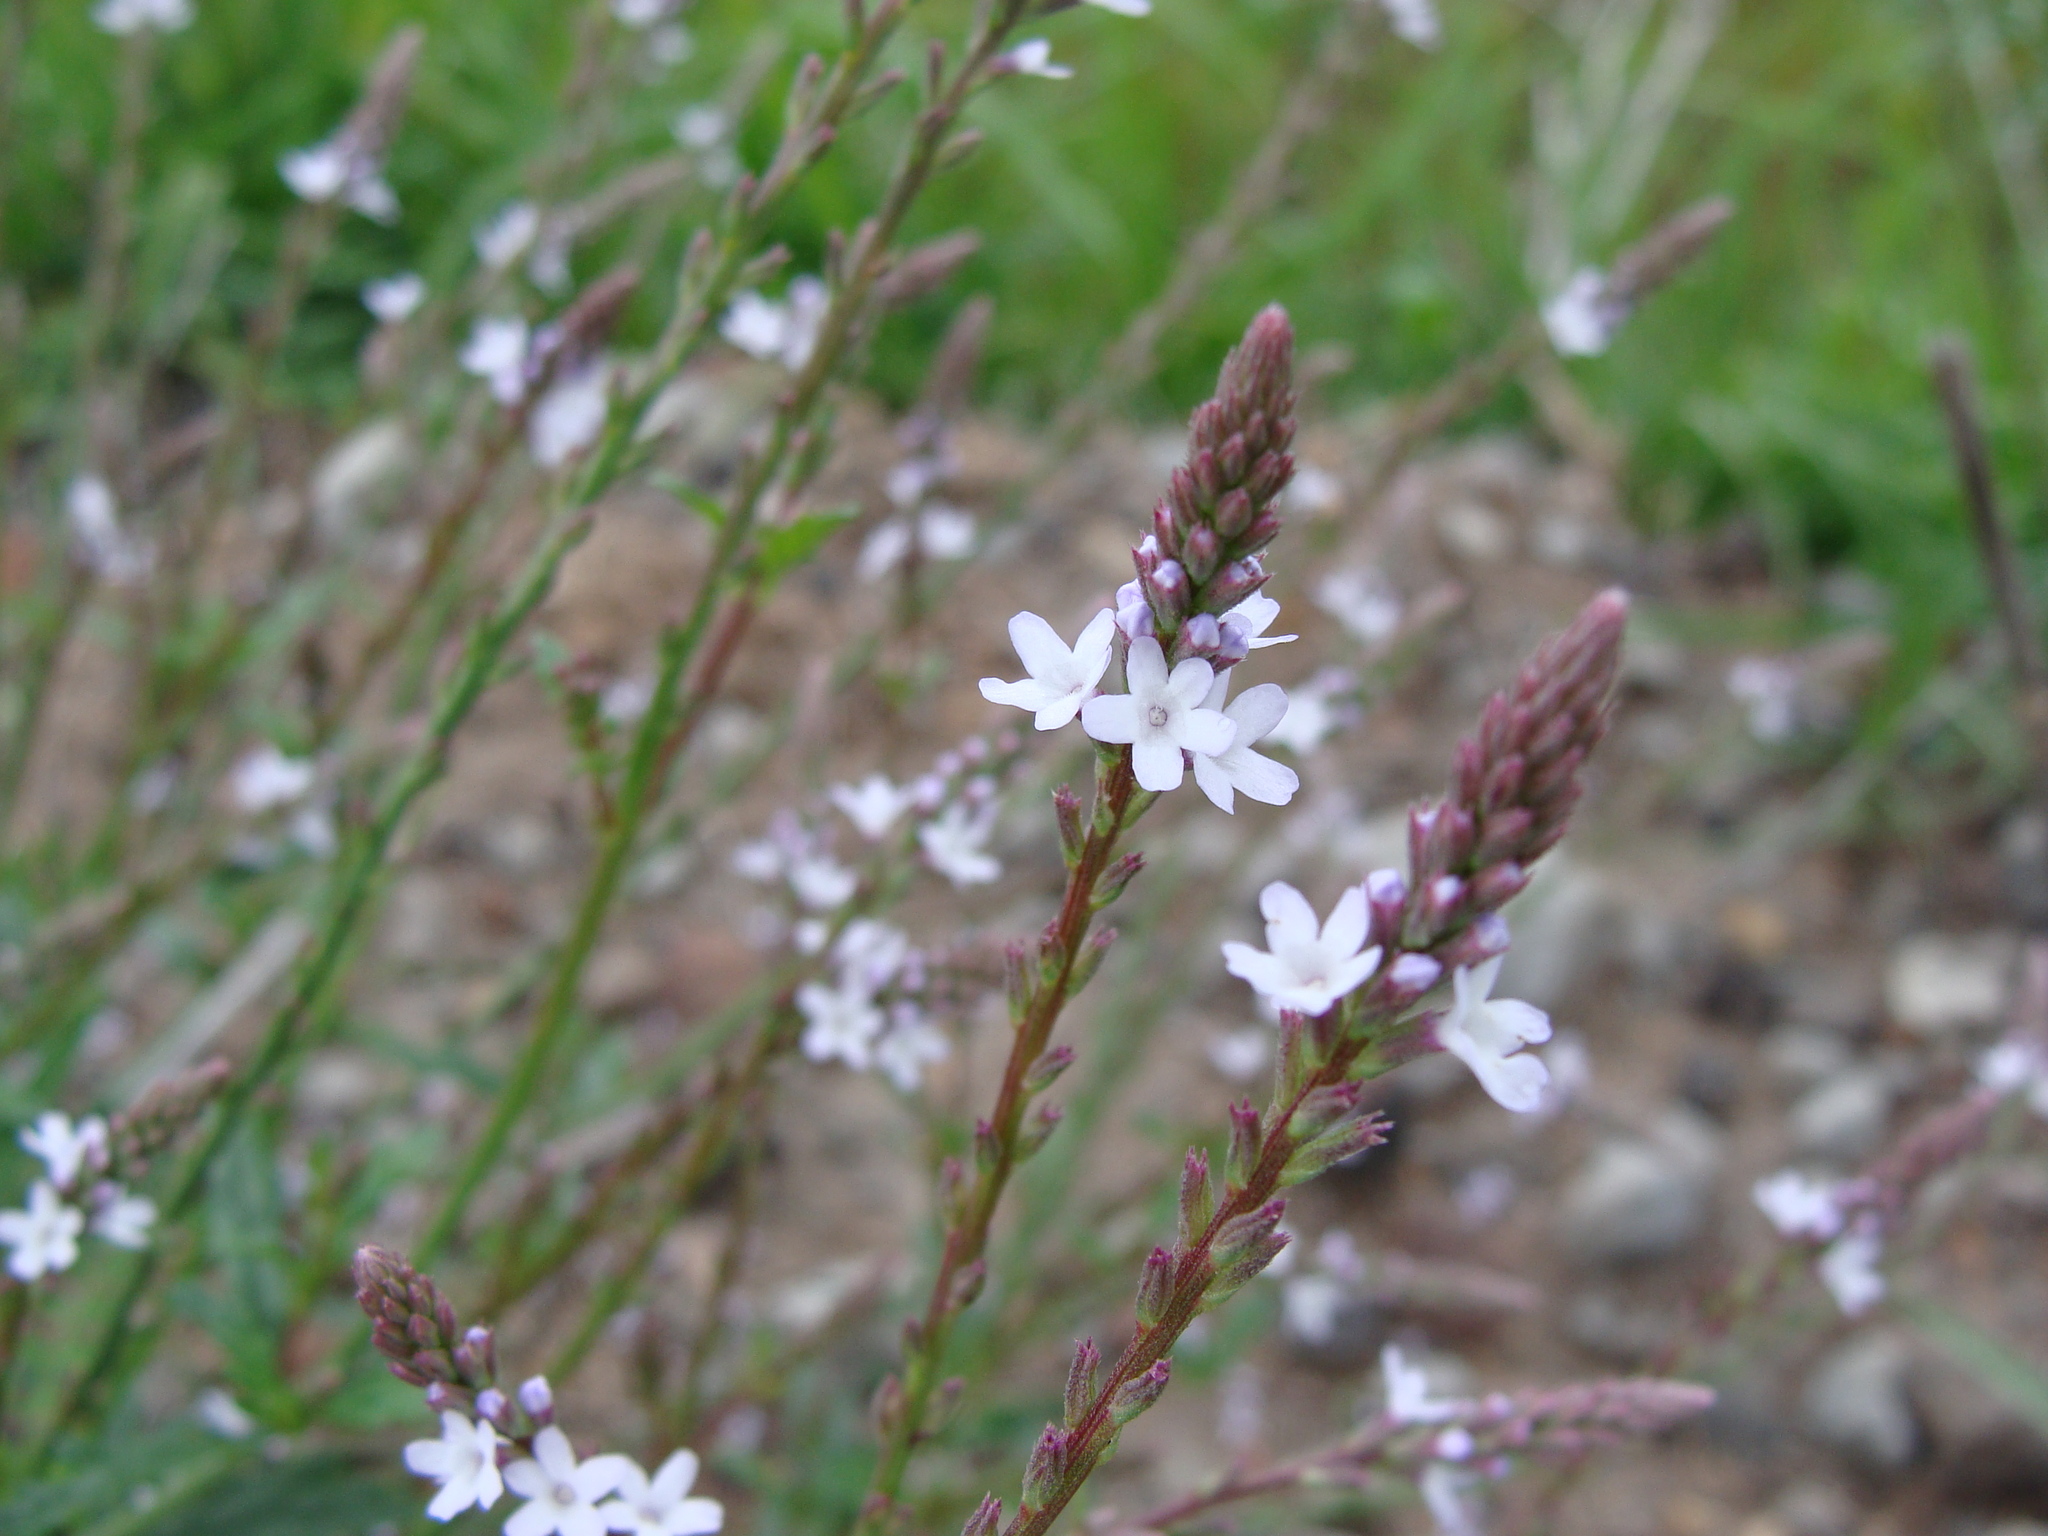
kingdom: Plantae
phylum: Tracheophyta
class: Magnoliopsida
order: Lamiales
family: Verbenaceae
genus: Verbena
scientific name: Verbena carolina
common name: Carolina vervain
